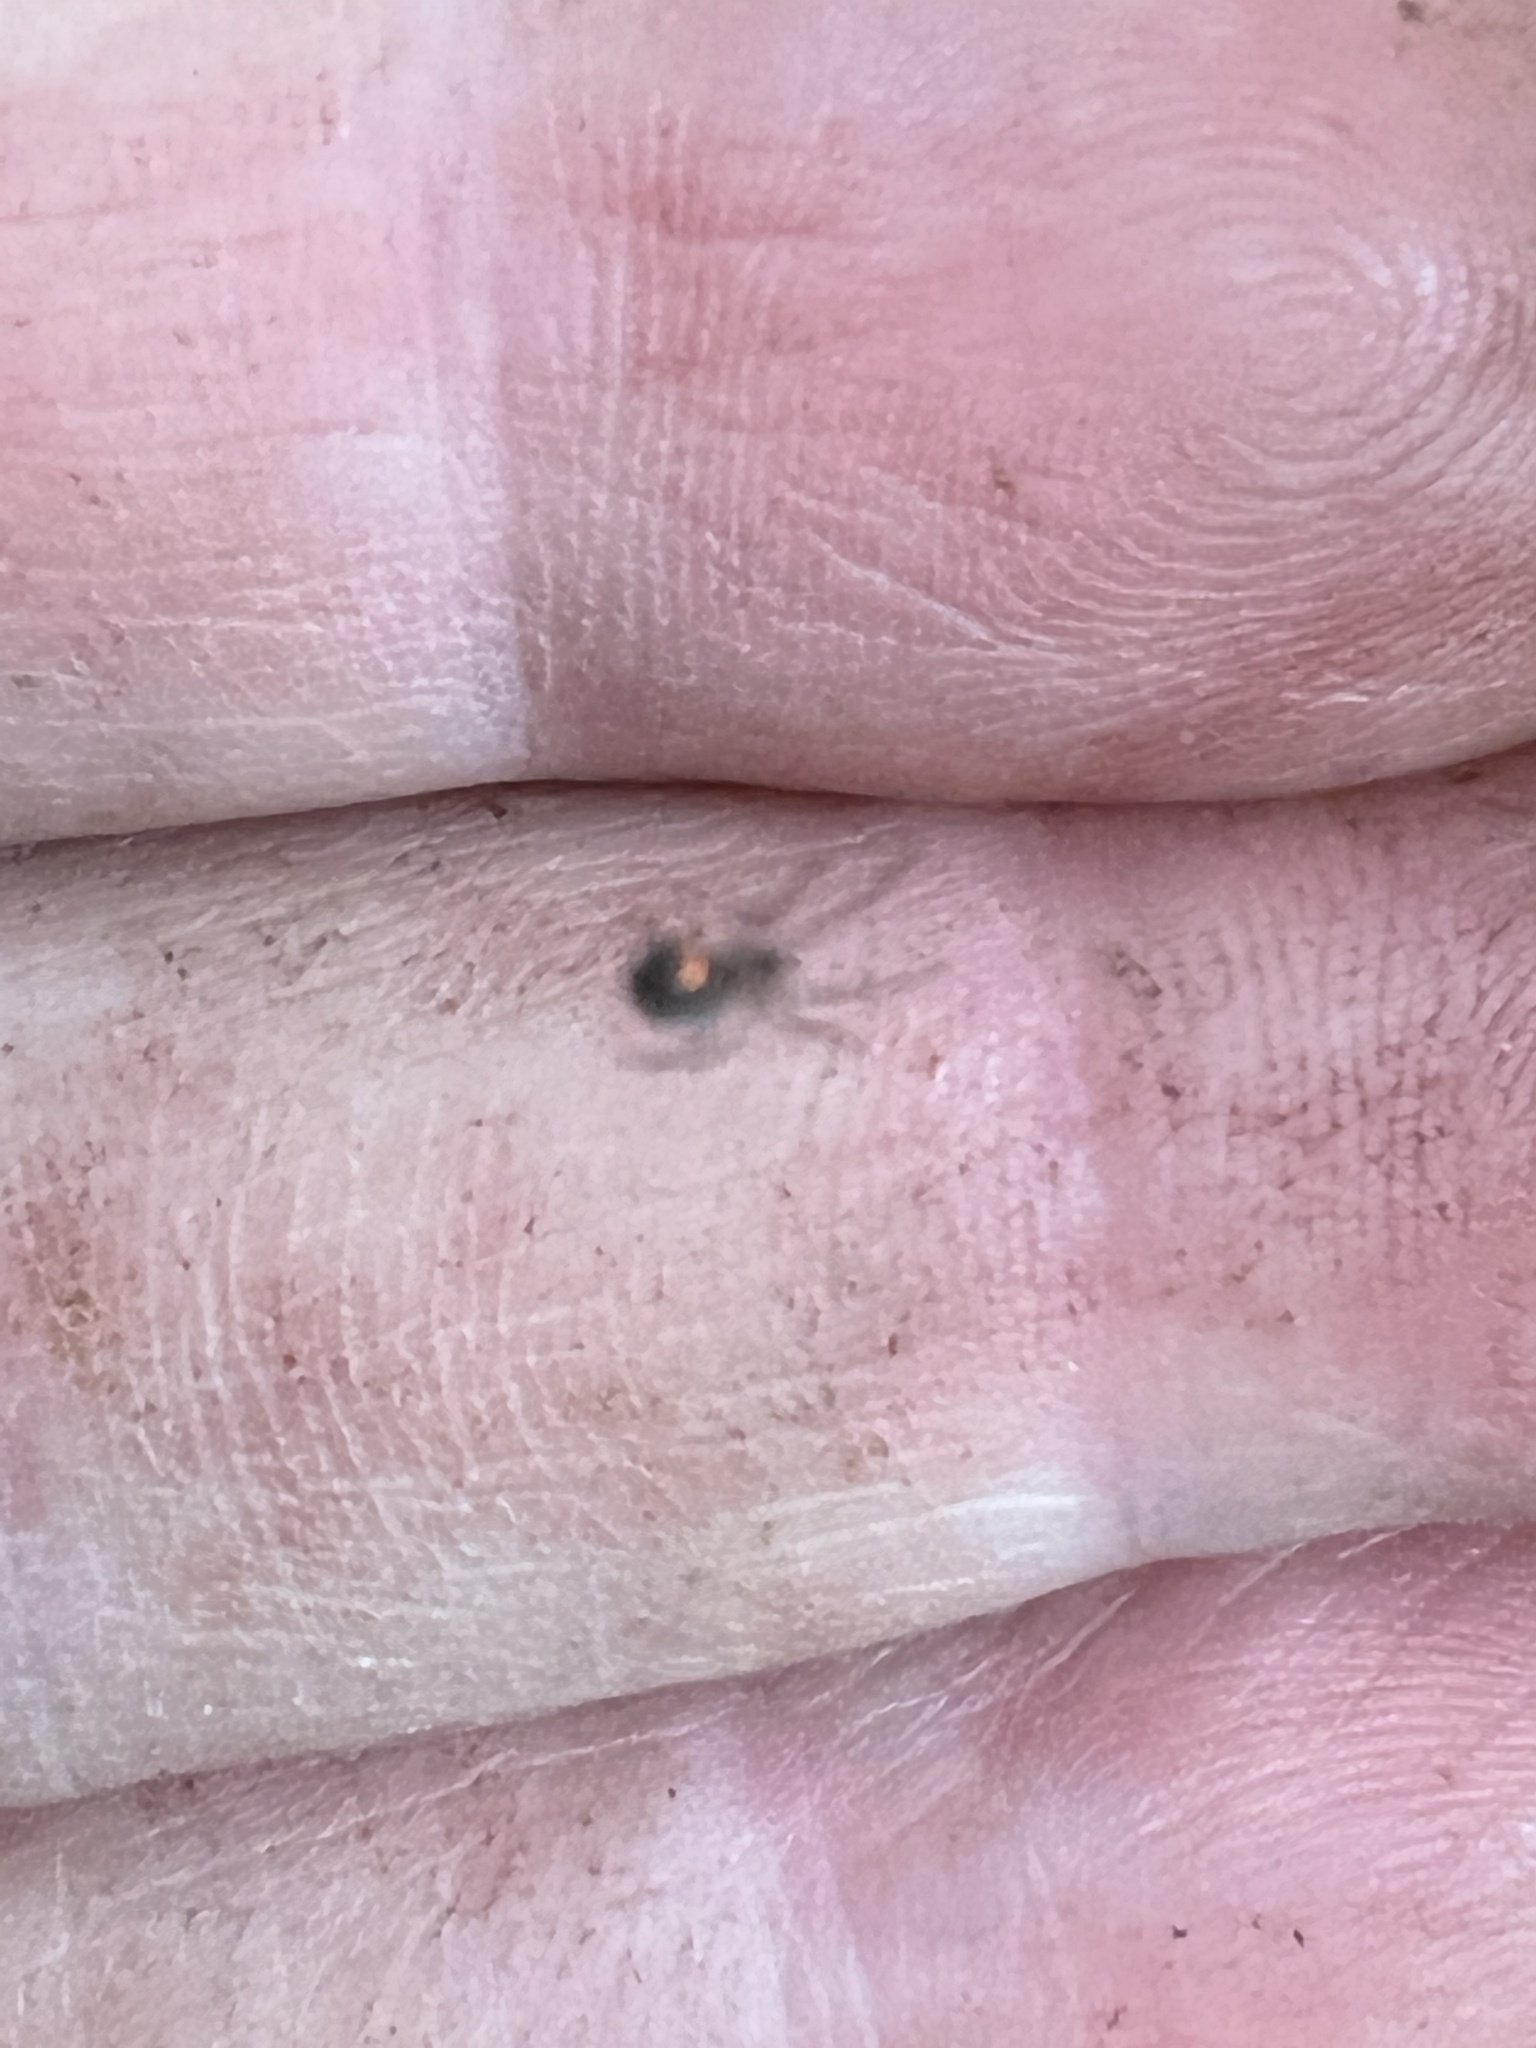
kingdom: Animalia
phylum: Arthropoda
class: Arachnida
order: Araneae
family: Tetragnathidae
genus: Leucauge
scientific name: Leucauge venusta
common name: Longjawed orb weavers
